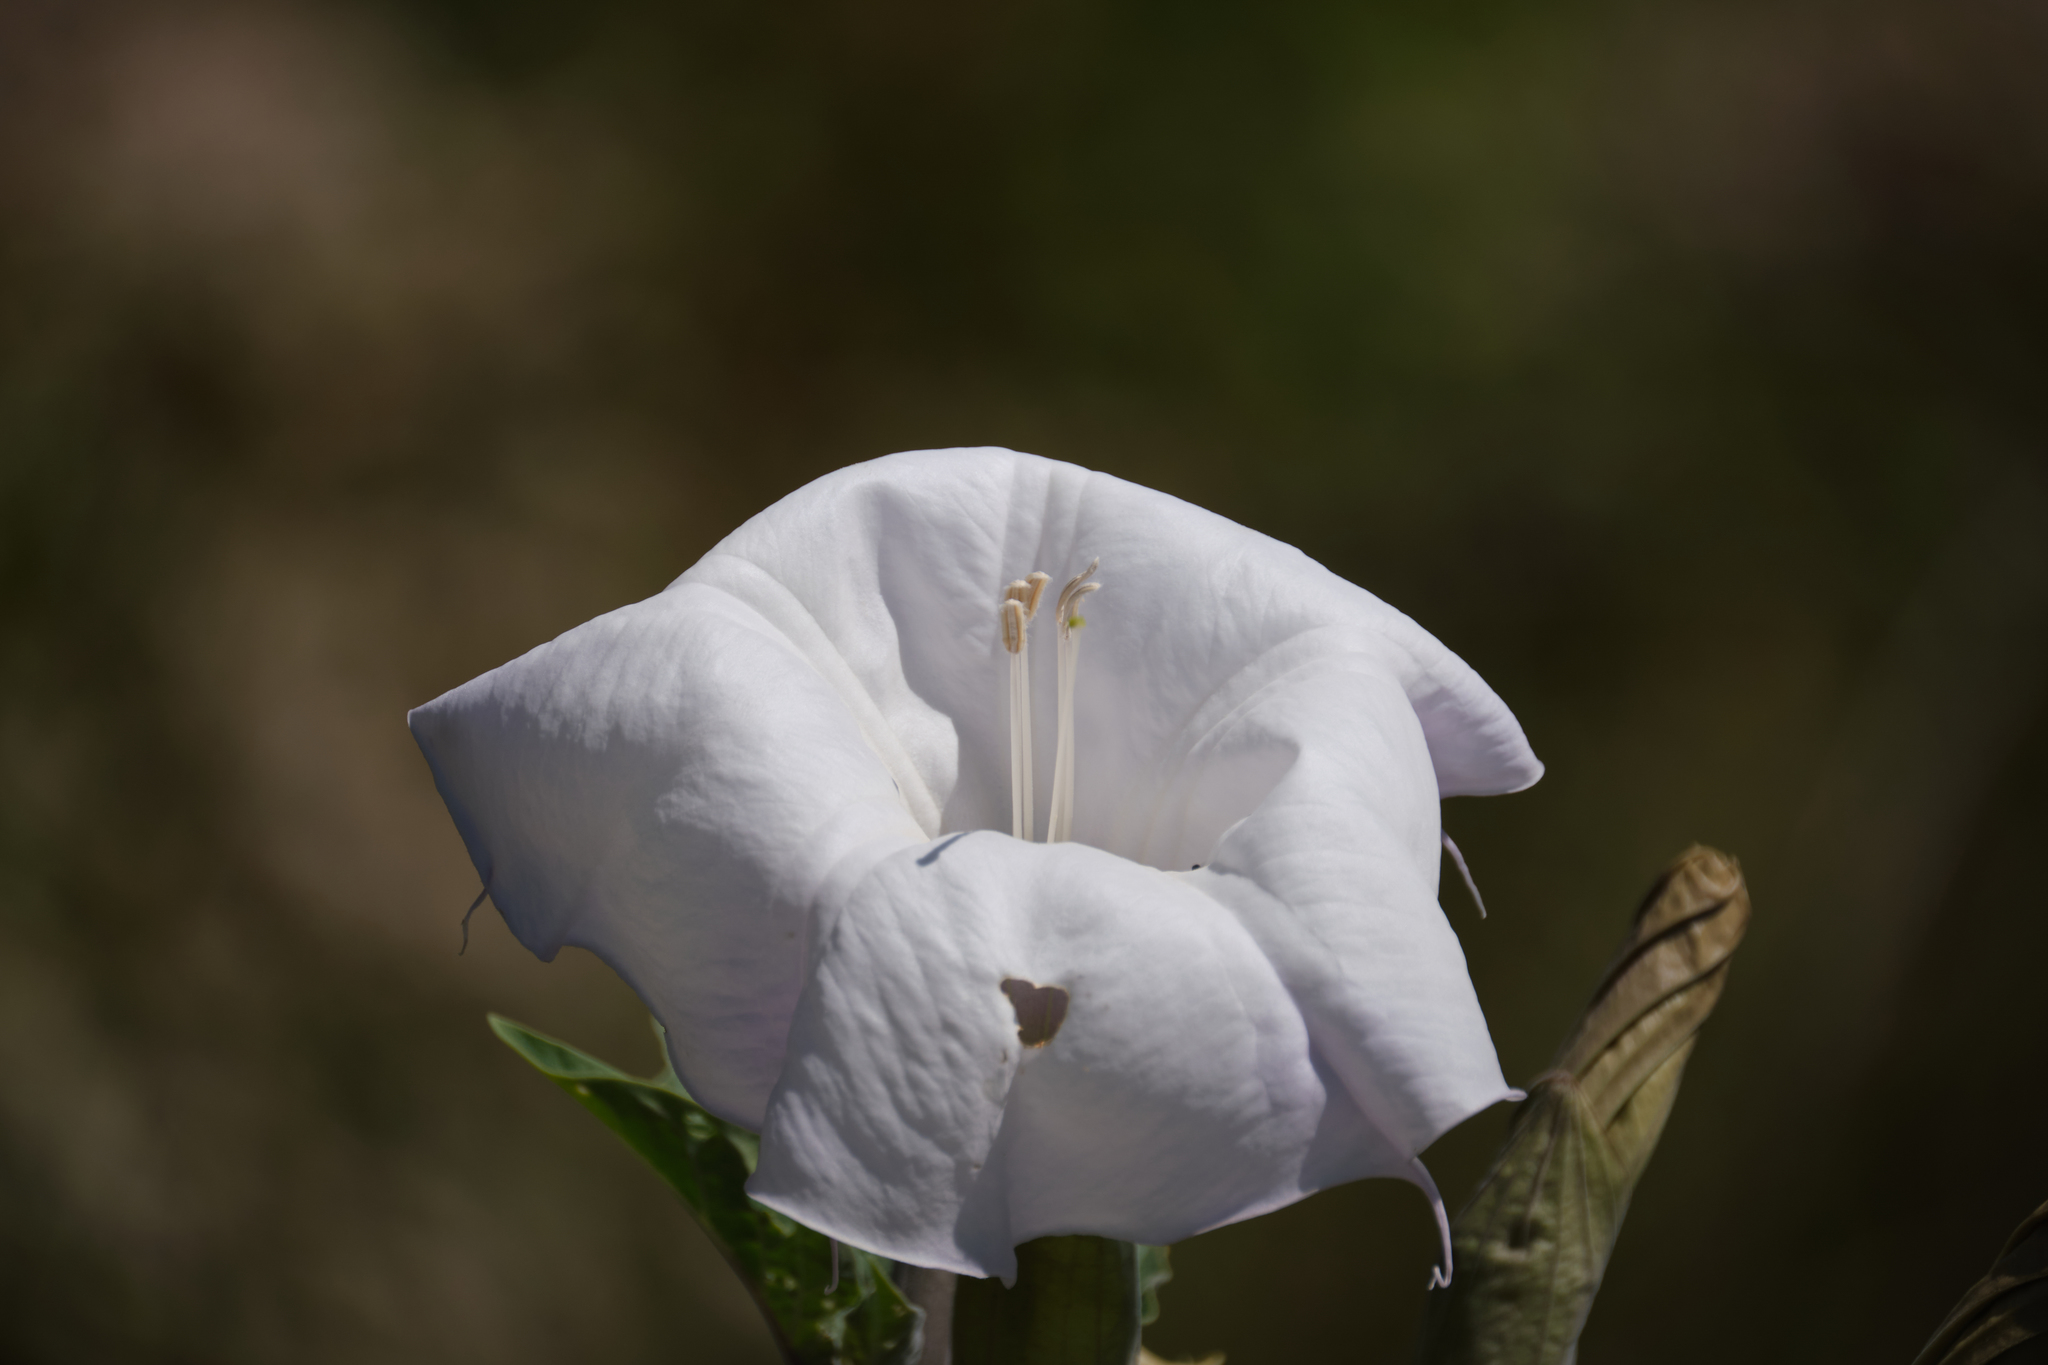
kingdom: Plantae
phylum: Tracheophyta
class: Magnoliopsida
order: Solanales
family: Solanaceae
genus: Datura
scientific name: Datura wrightii
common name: Sacred thorn-apple
